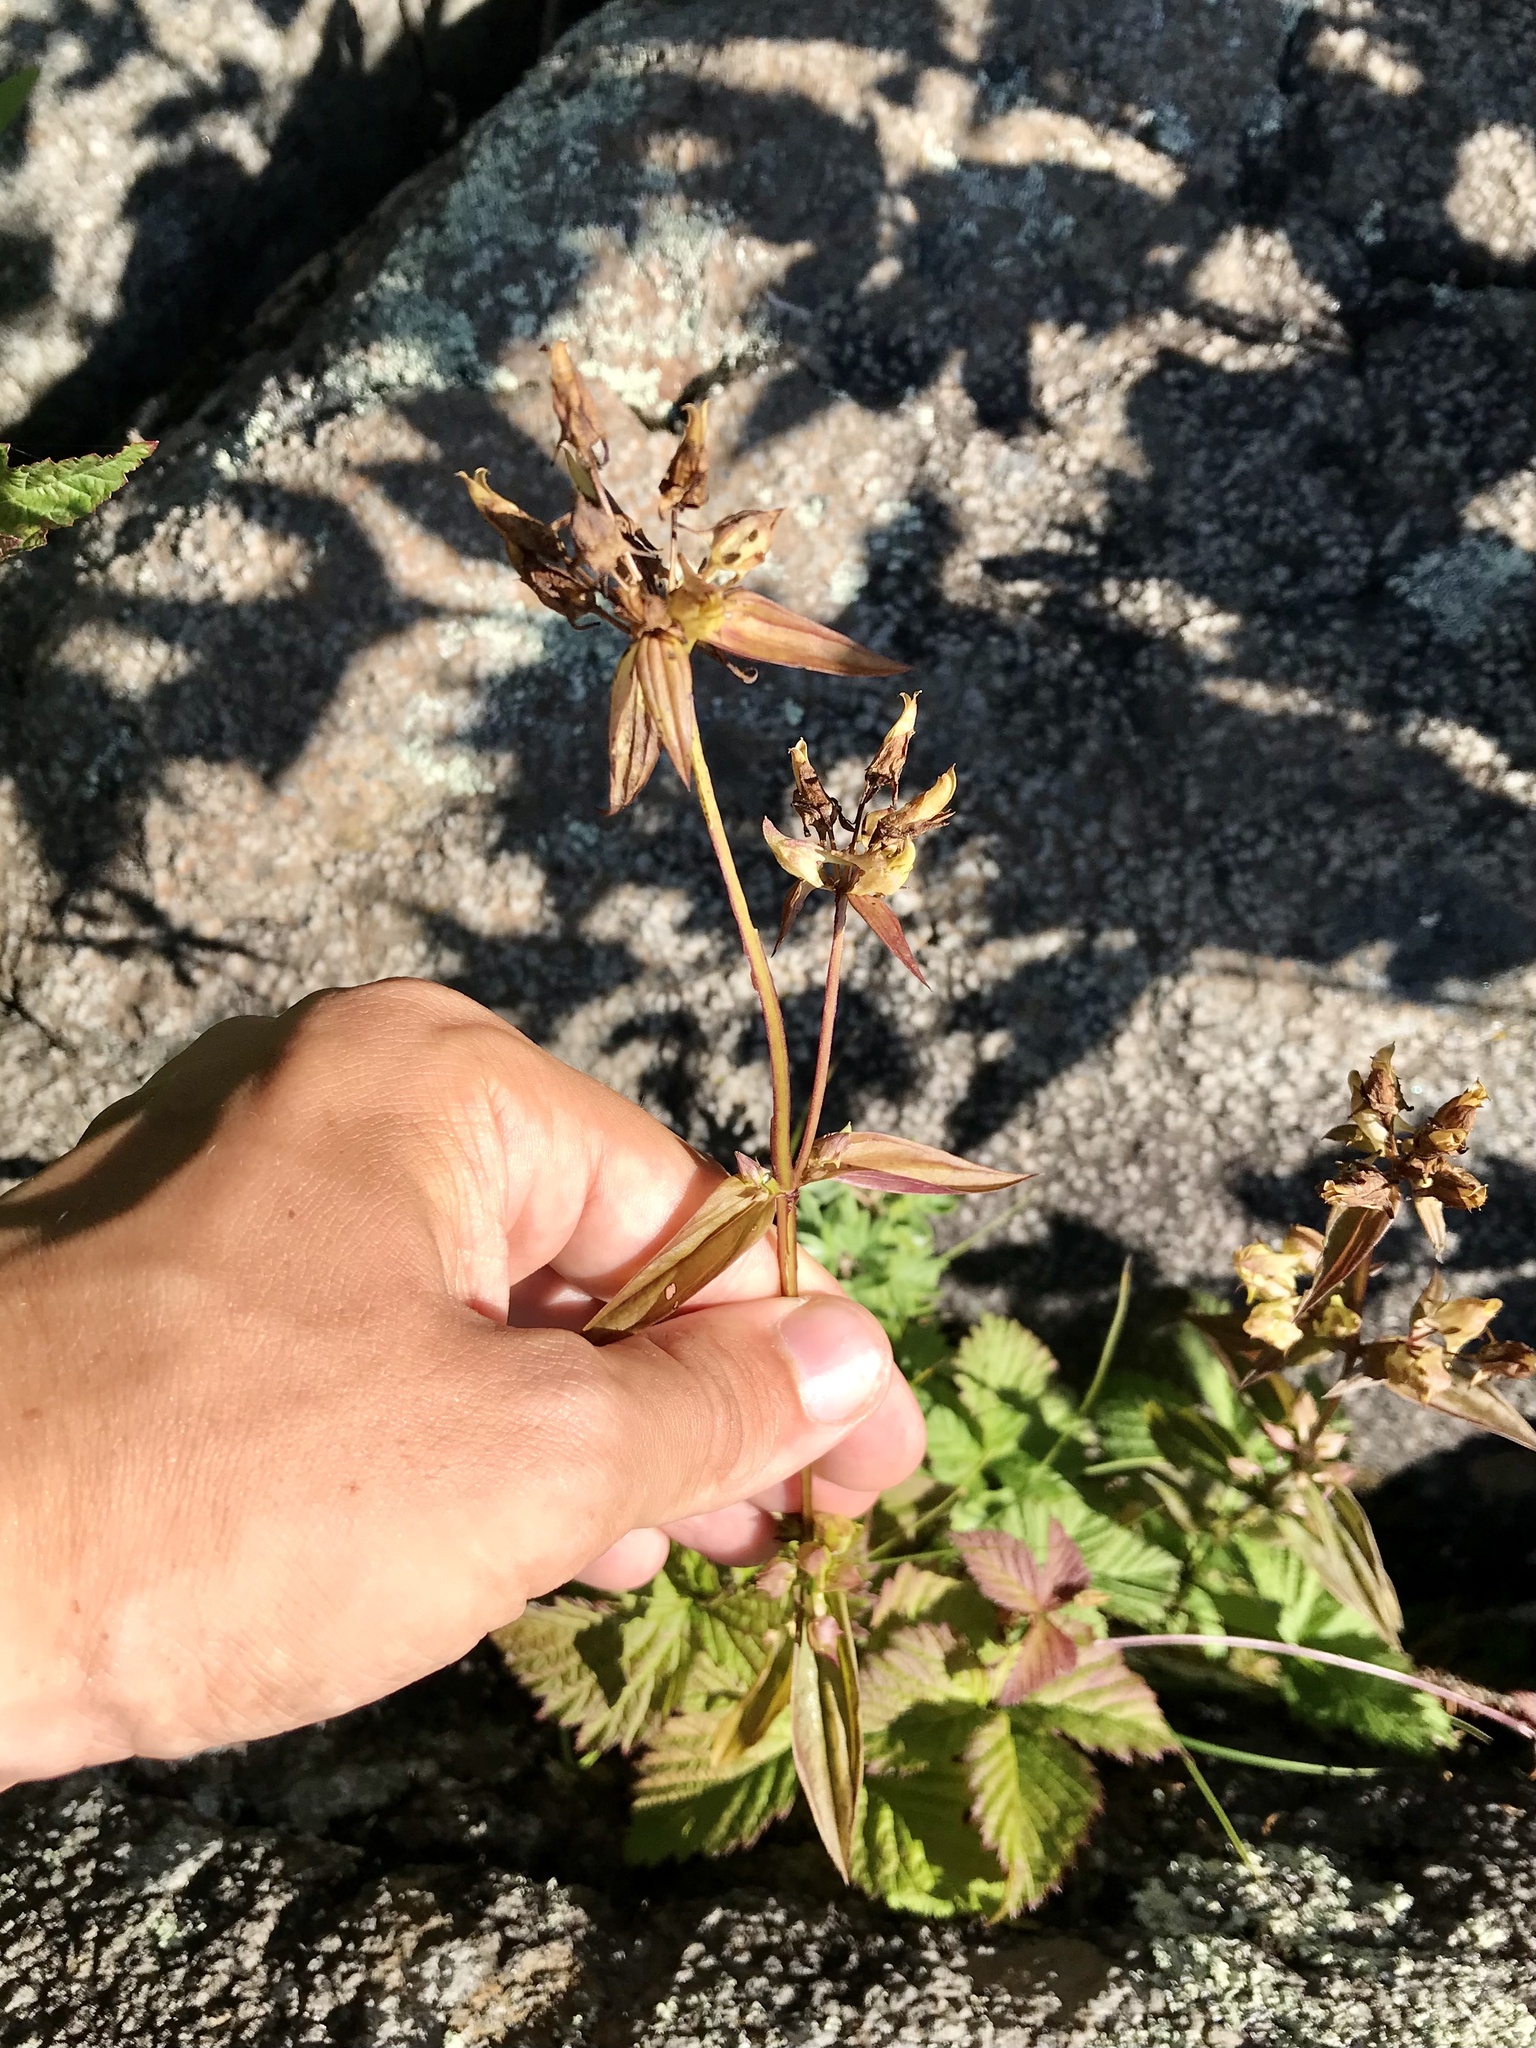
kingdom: Plantae
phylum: Tracheophyta
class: Magnoliopsida
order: Gentianales
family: Gentianaceae
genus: Halenia
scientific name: Halenia deflexa
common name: American spurred gentian
